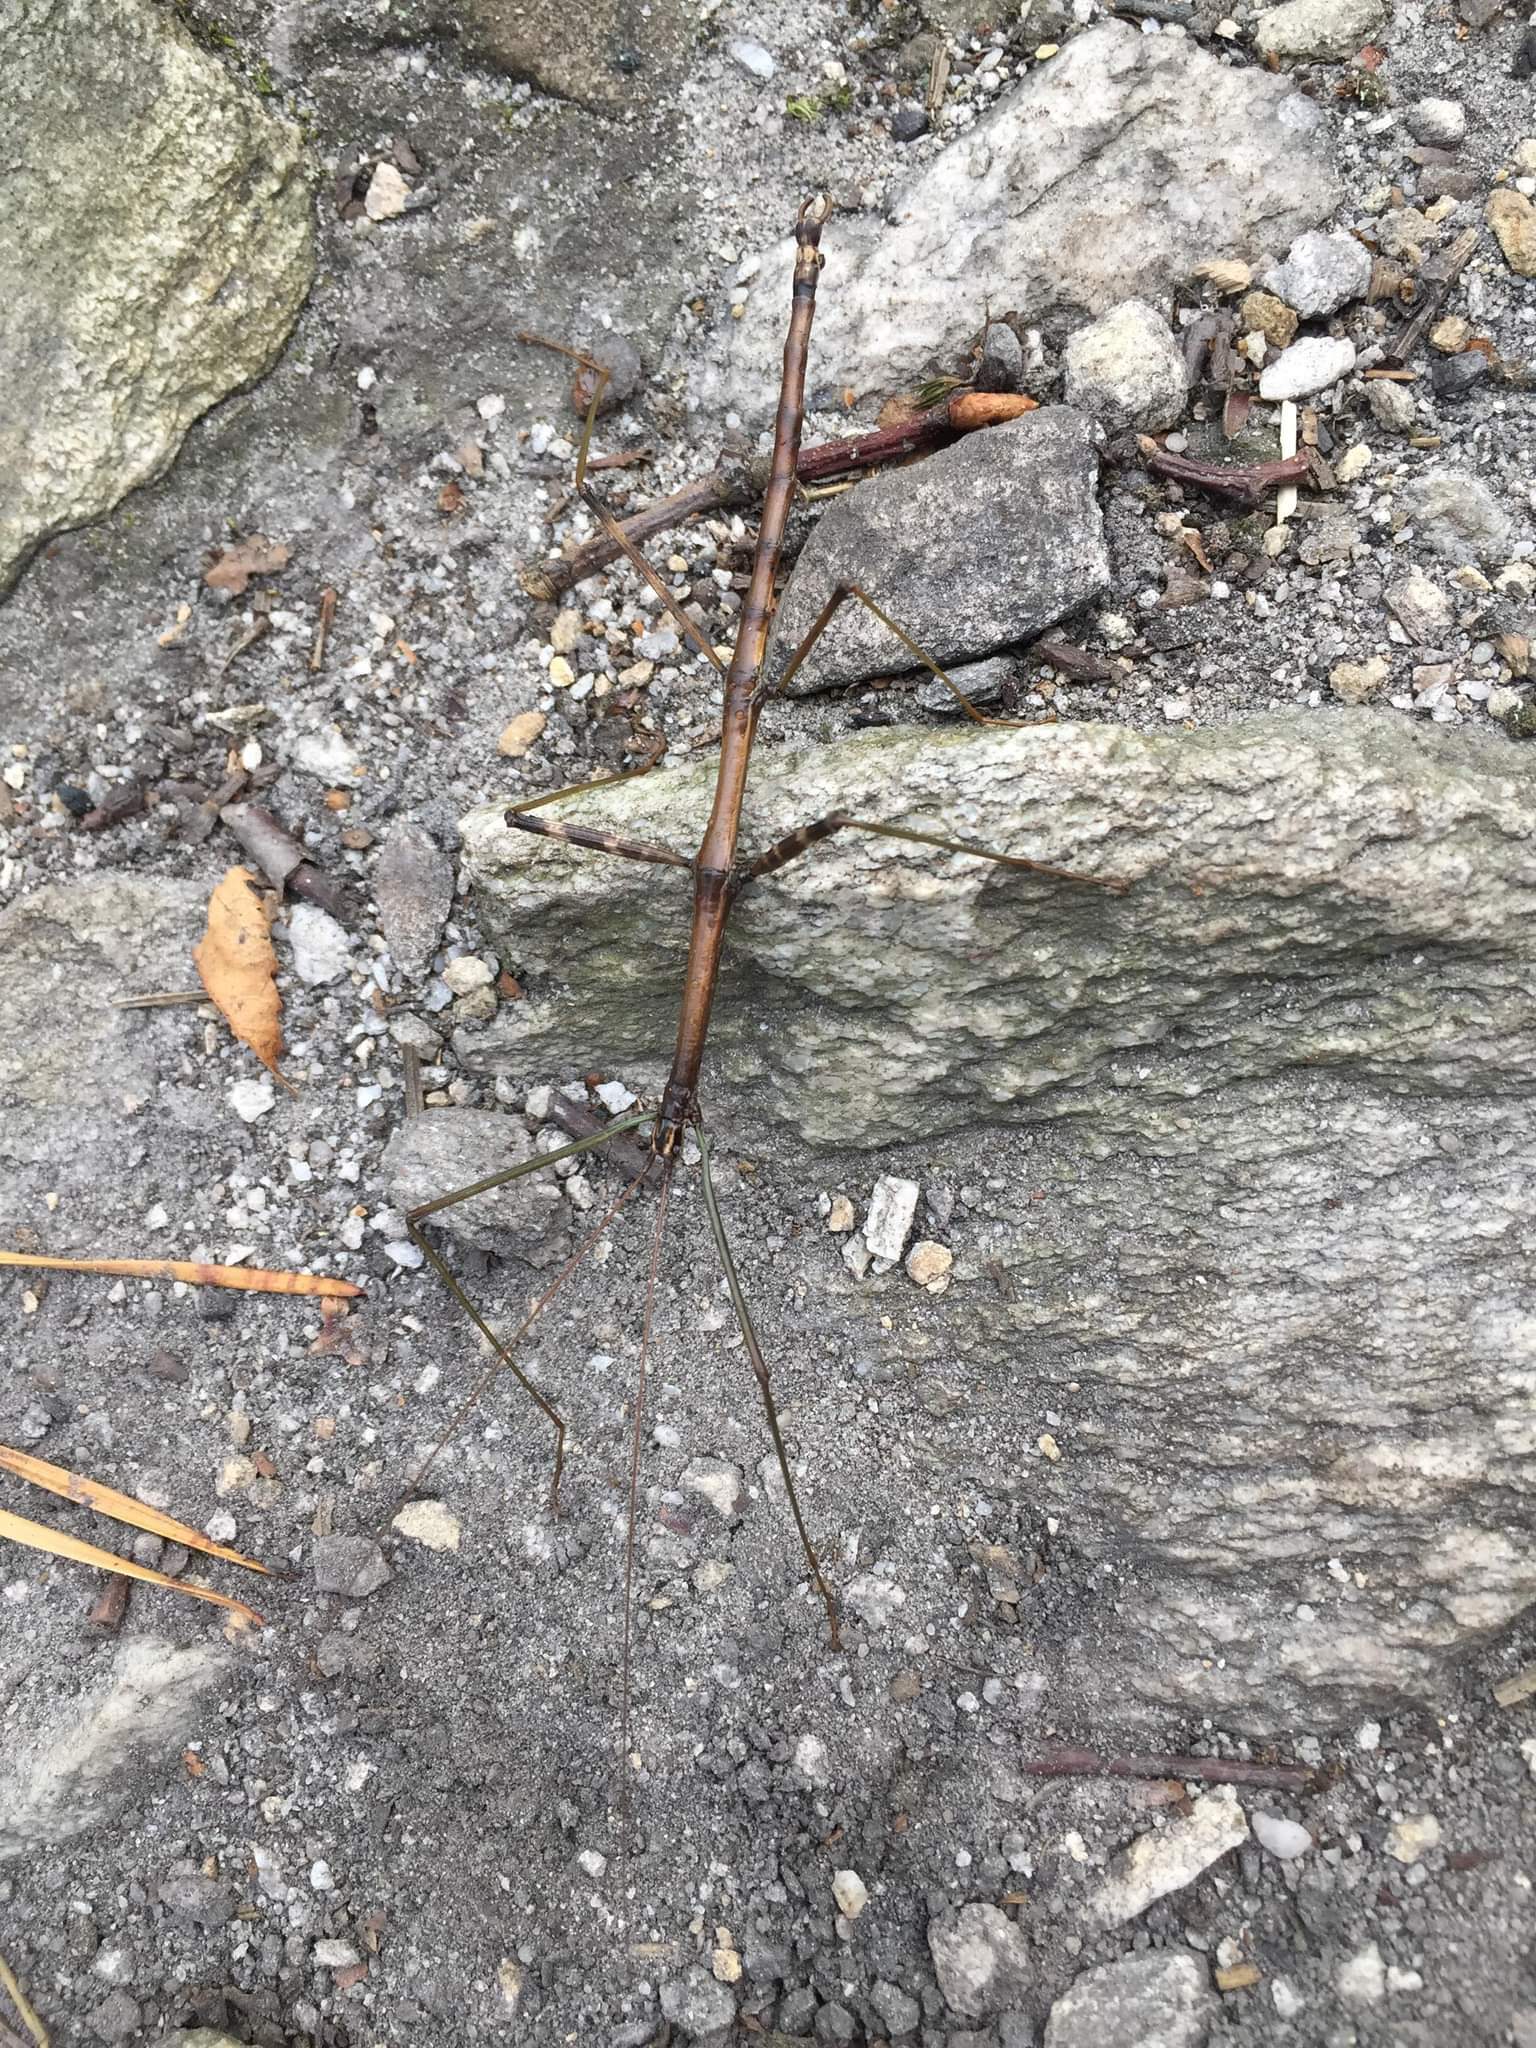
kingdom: Animalia
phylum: Arthropoda
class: Insecta
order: Phasmida
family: Diapheromeridae
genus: Diapheromera
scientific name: Diapheromera femorata
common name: Common american walkingstick
